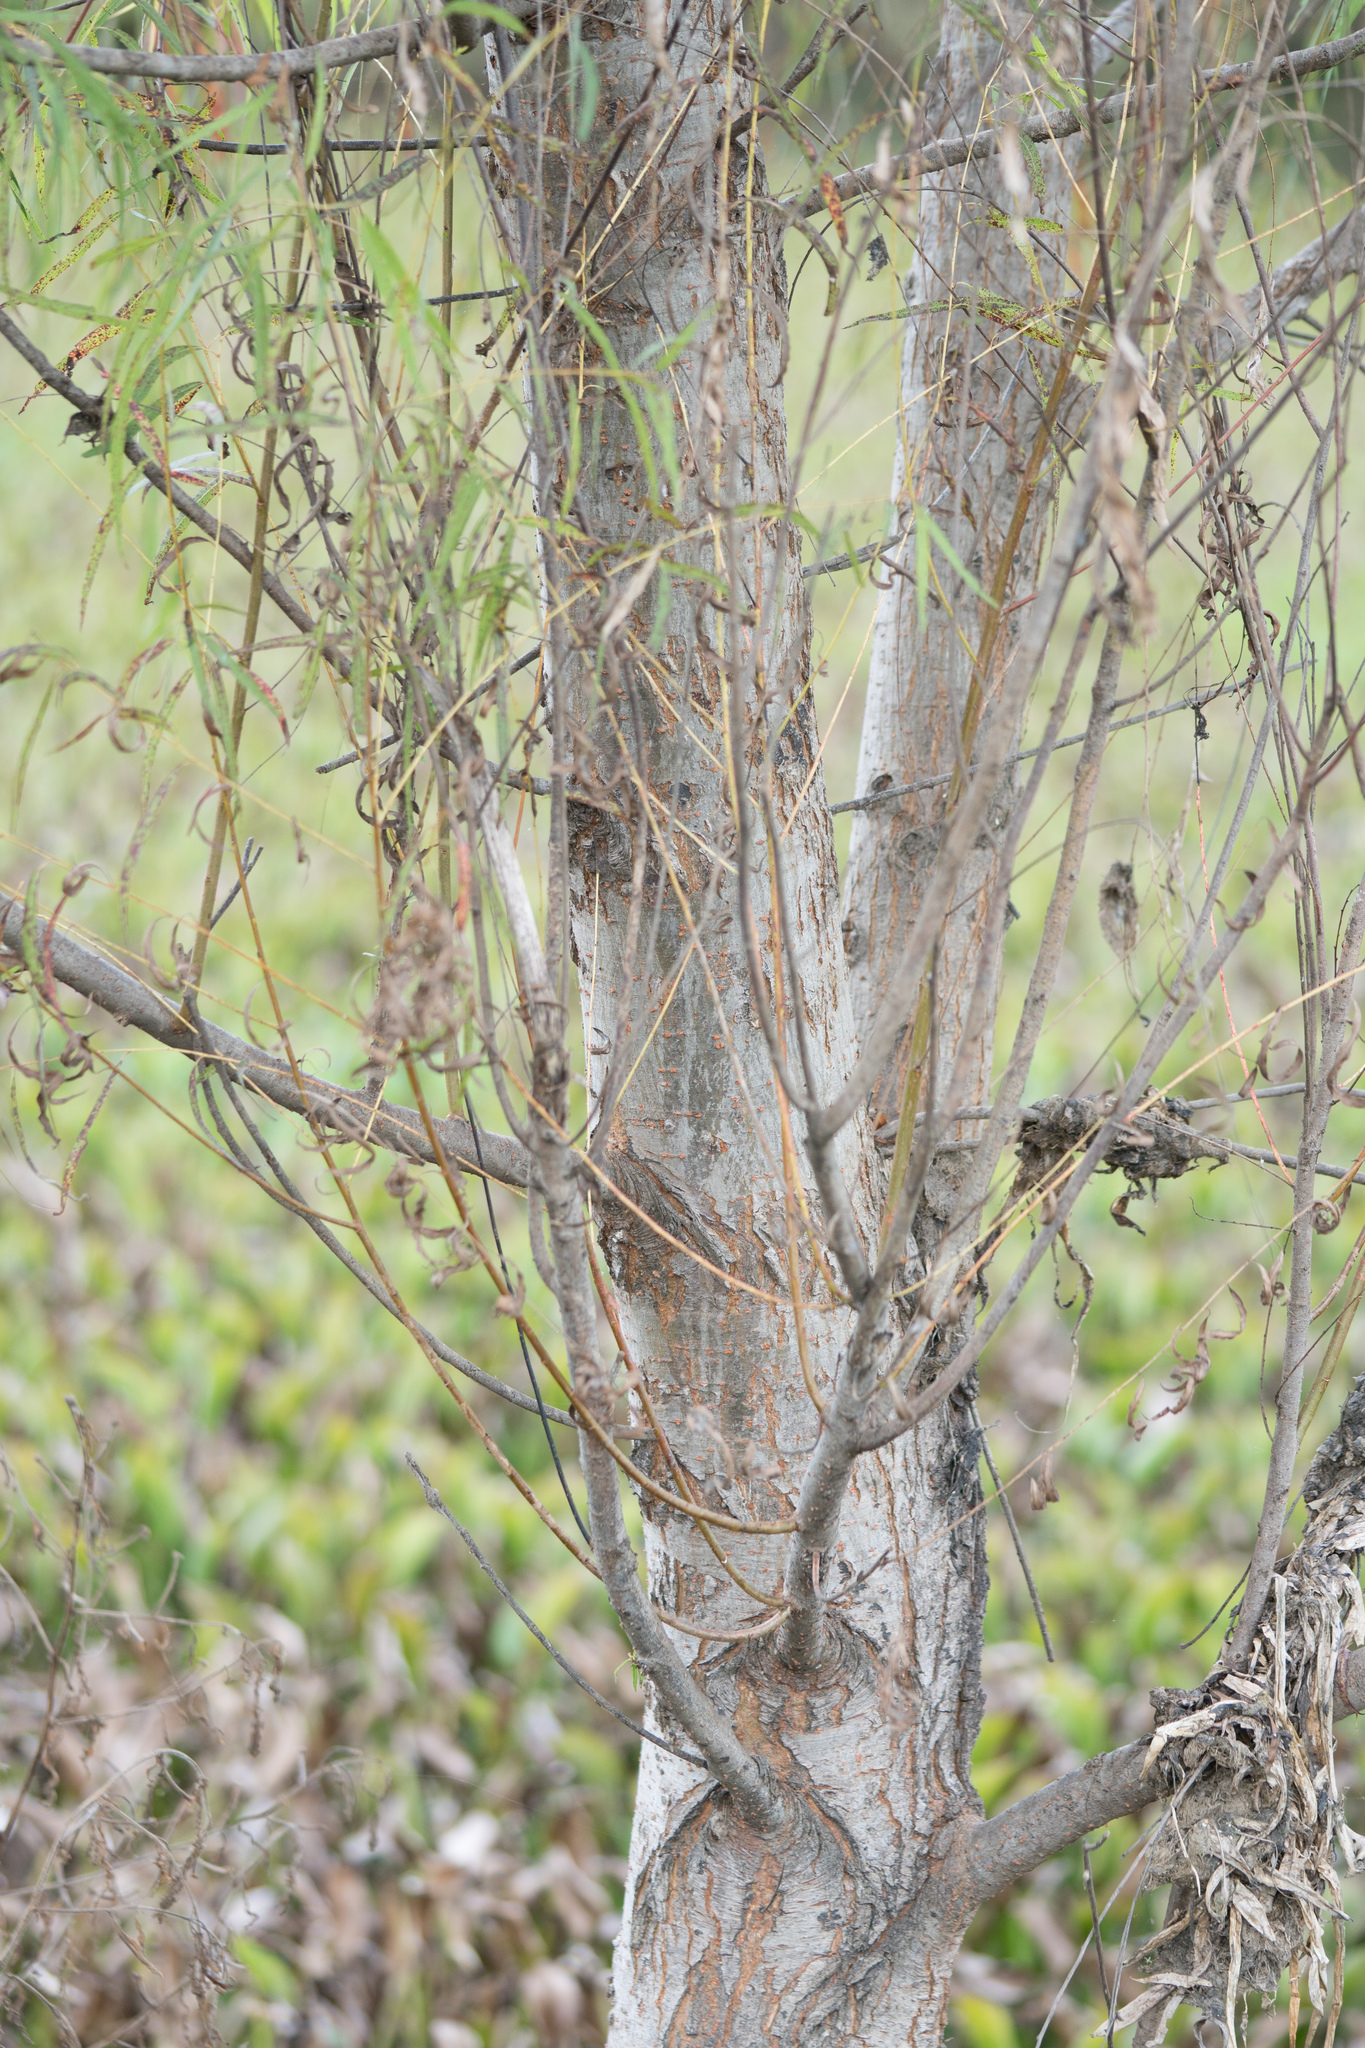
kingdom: Plantae
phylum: Tracheophyta
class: Magnoliopsida
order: Malpighiales
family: Salicaceae
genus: Salix
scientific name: Salix nigra
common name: Black willow
